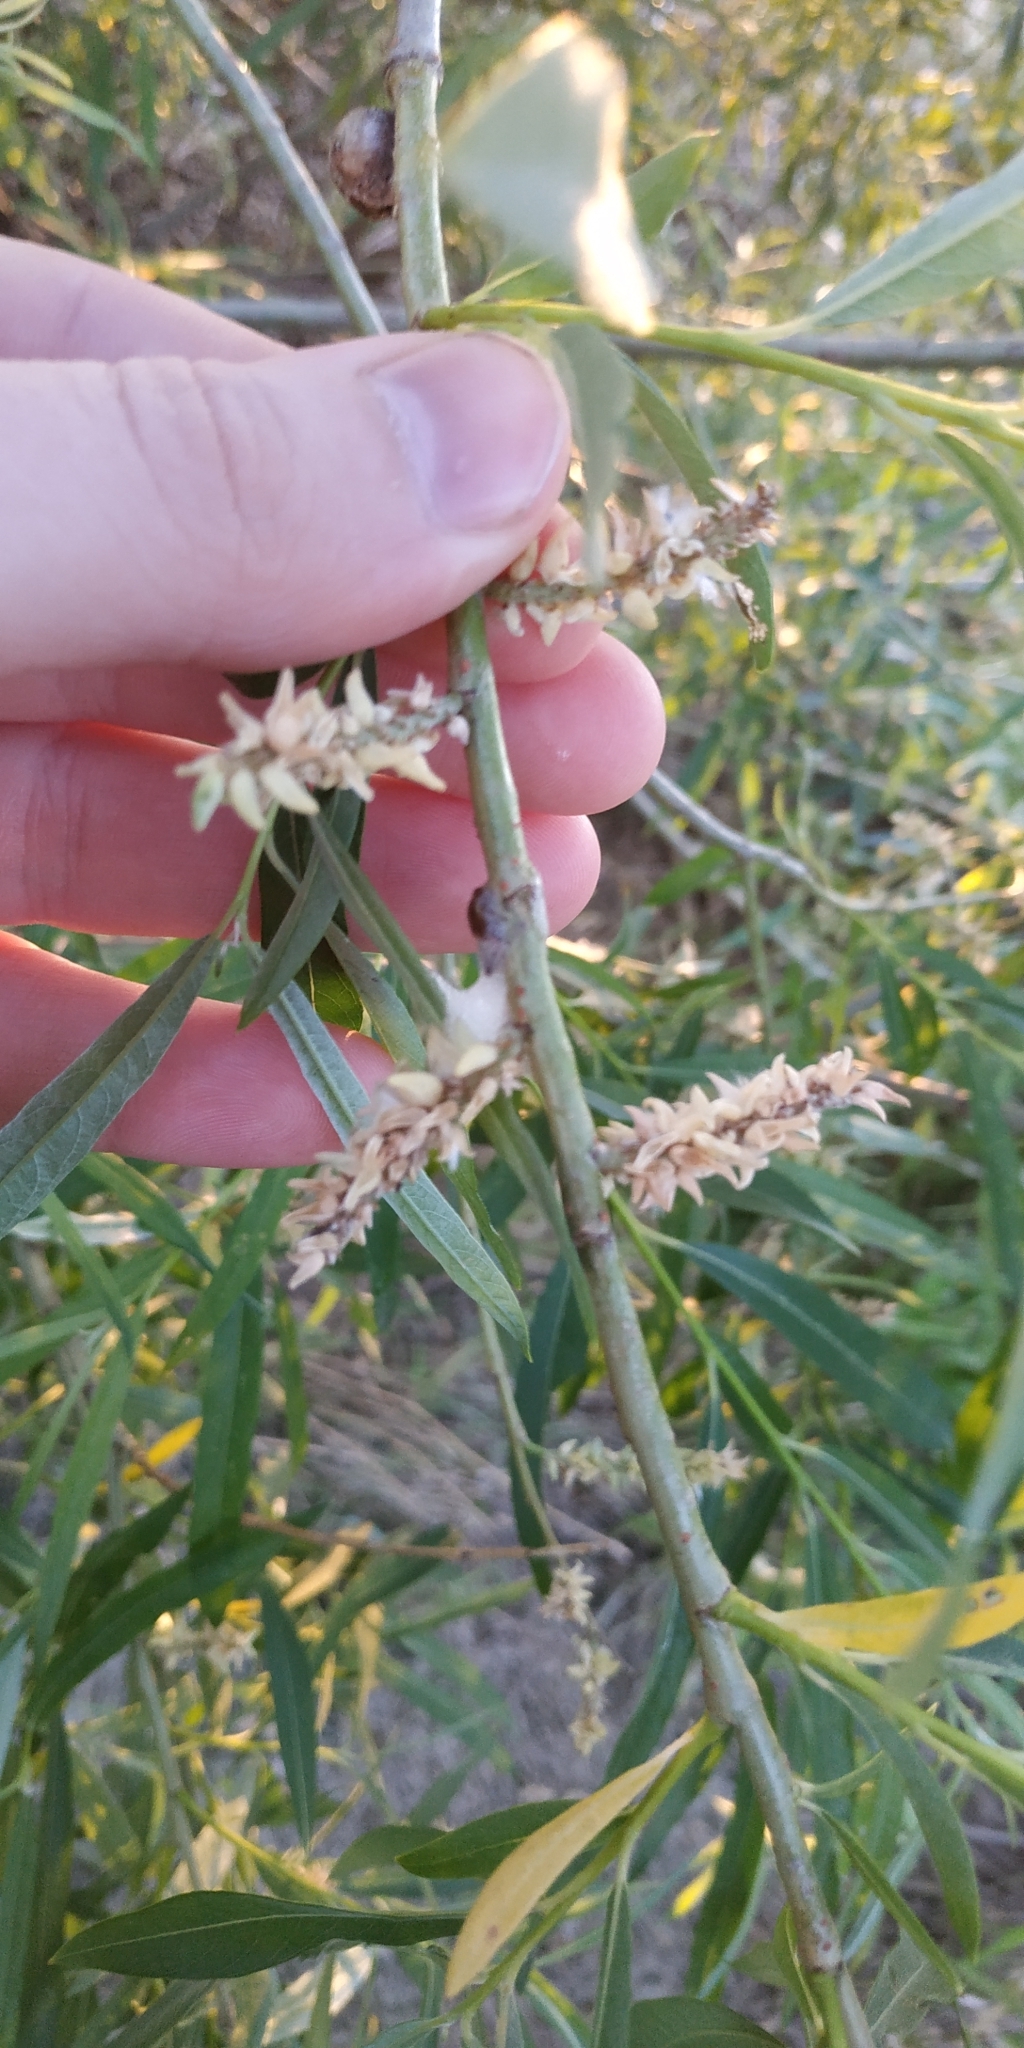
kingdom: Plantae
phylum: Tracheophyta
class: Magnoliopsida
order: Malpighiales
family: Salicaceae
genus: Salix
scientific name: Salix viminalis
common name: Osier
